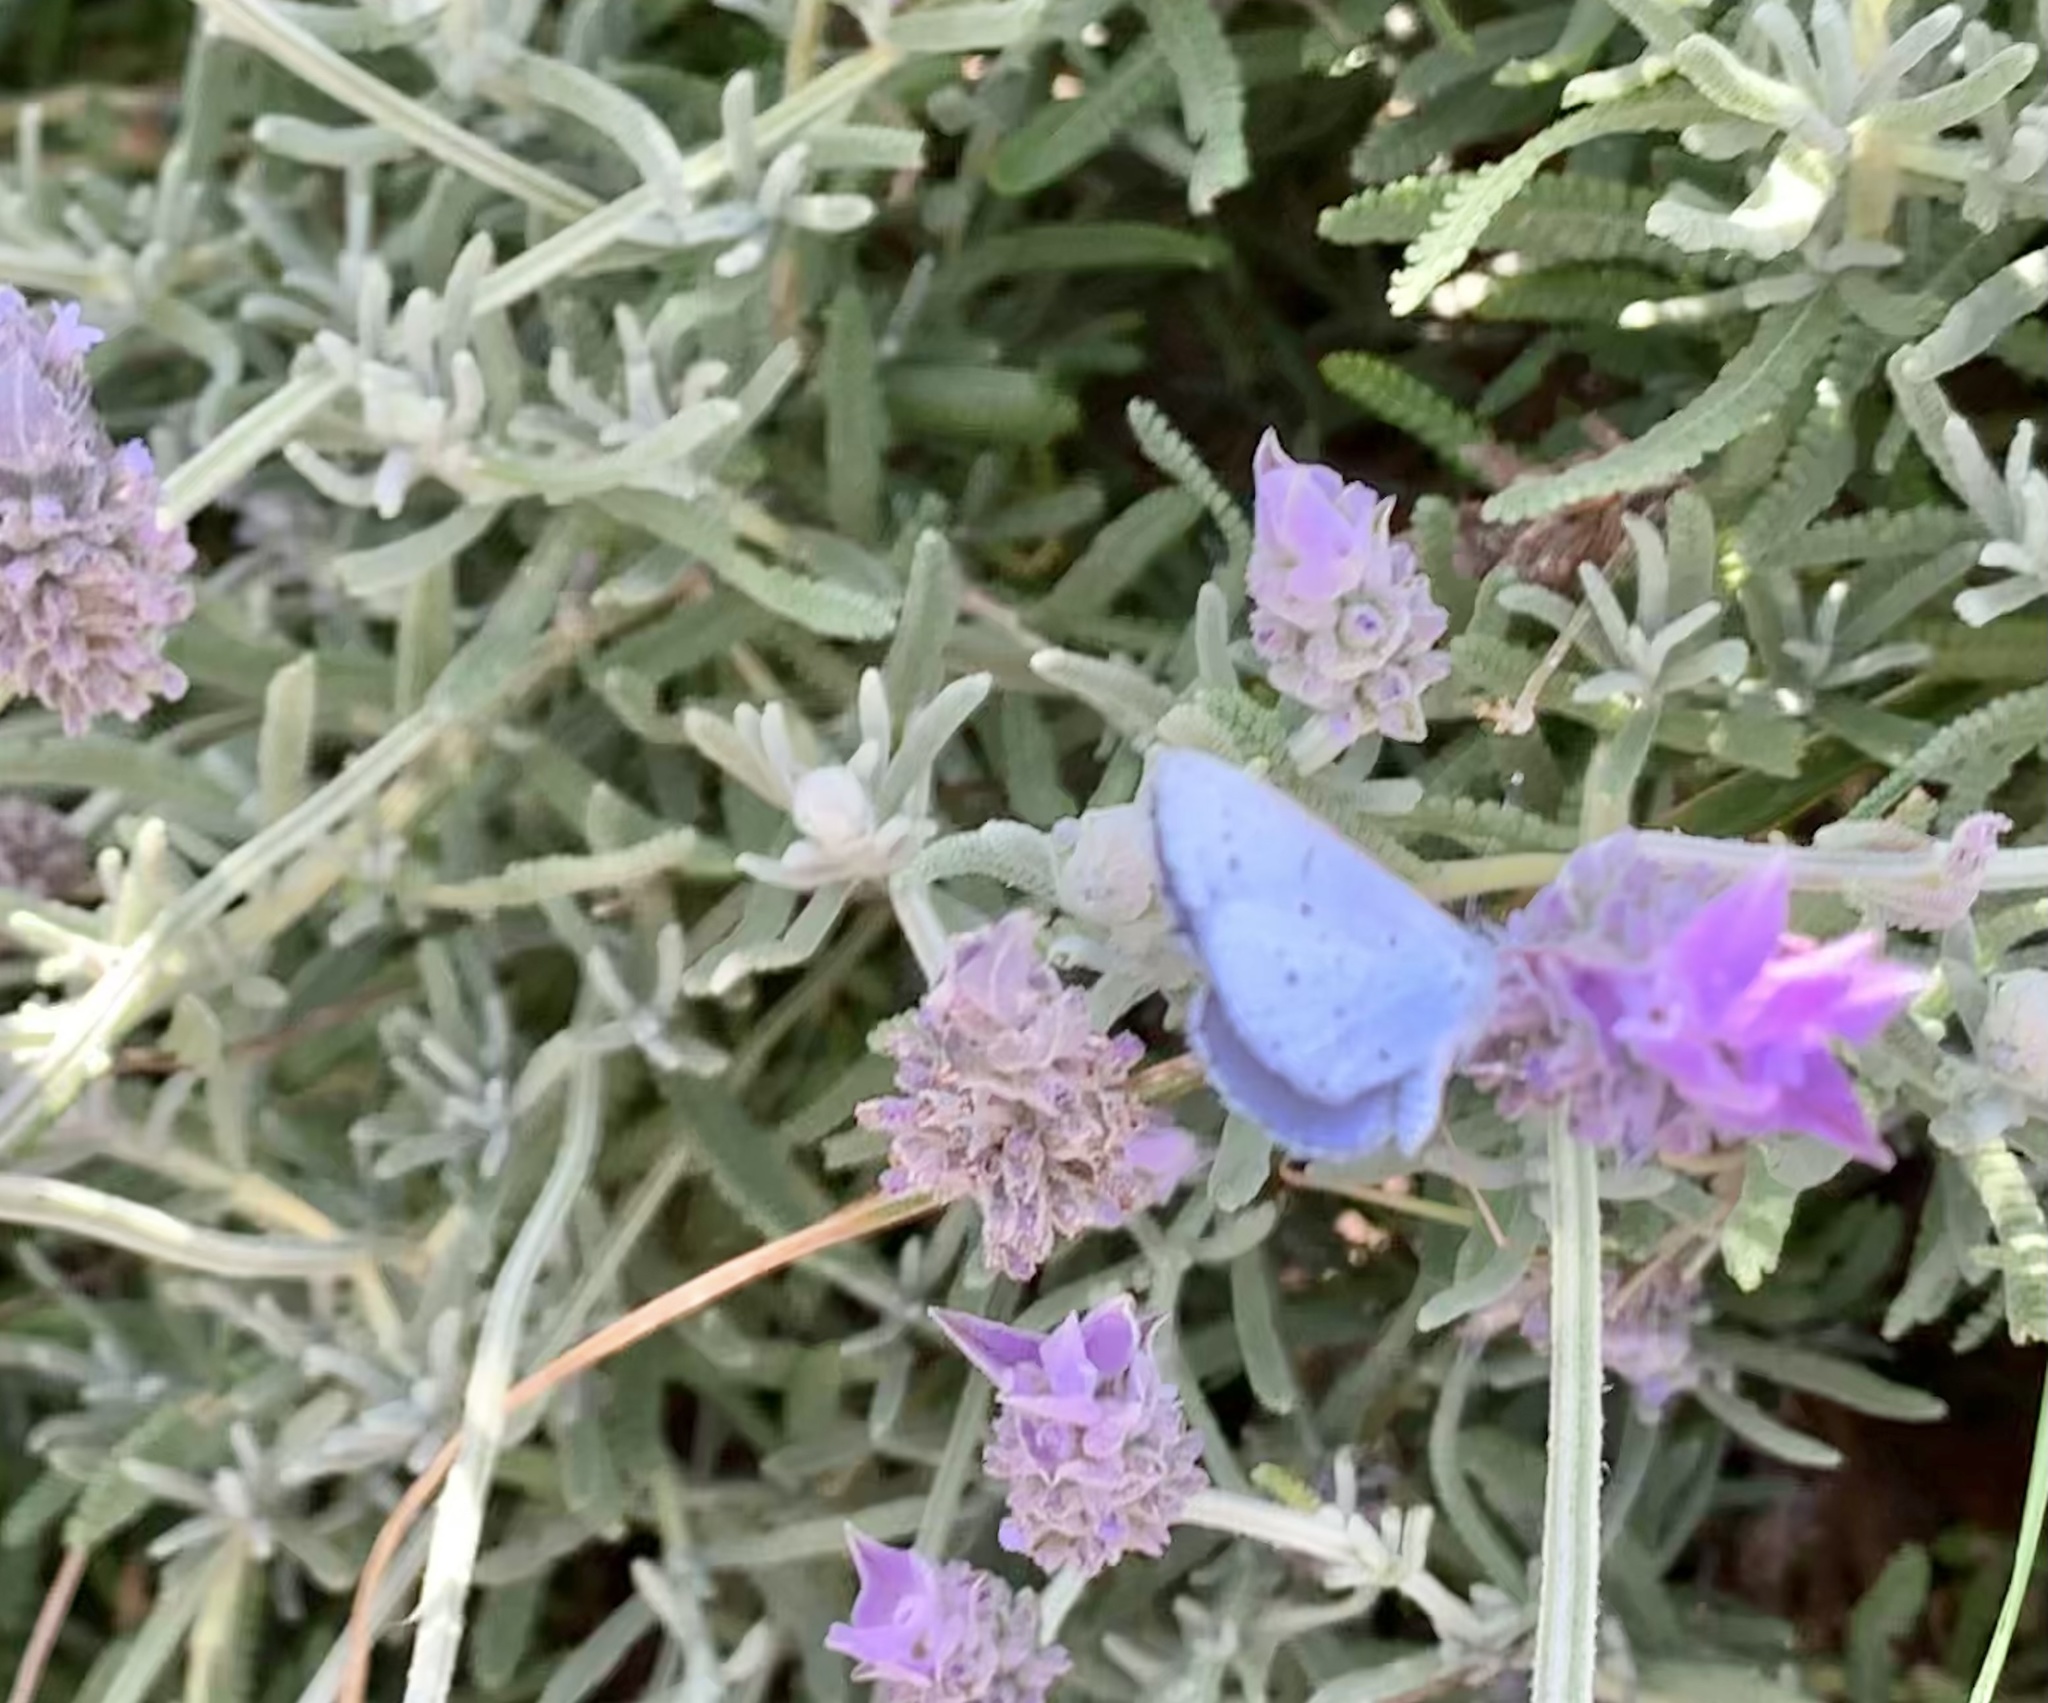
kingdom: Animalia
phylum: Arthropoda
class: Insecta
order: Lepidoptera
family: Lycaenidae
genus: Celastrina
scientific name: Celastrina argiolus
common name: Holly blue
